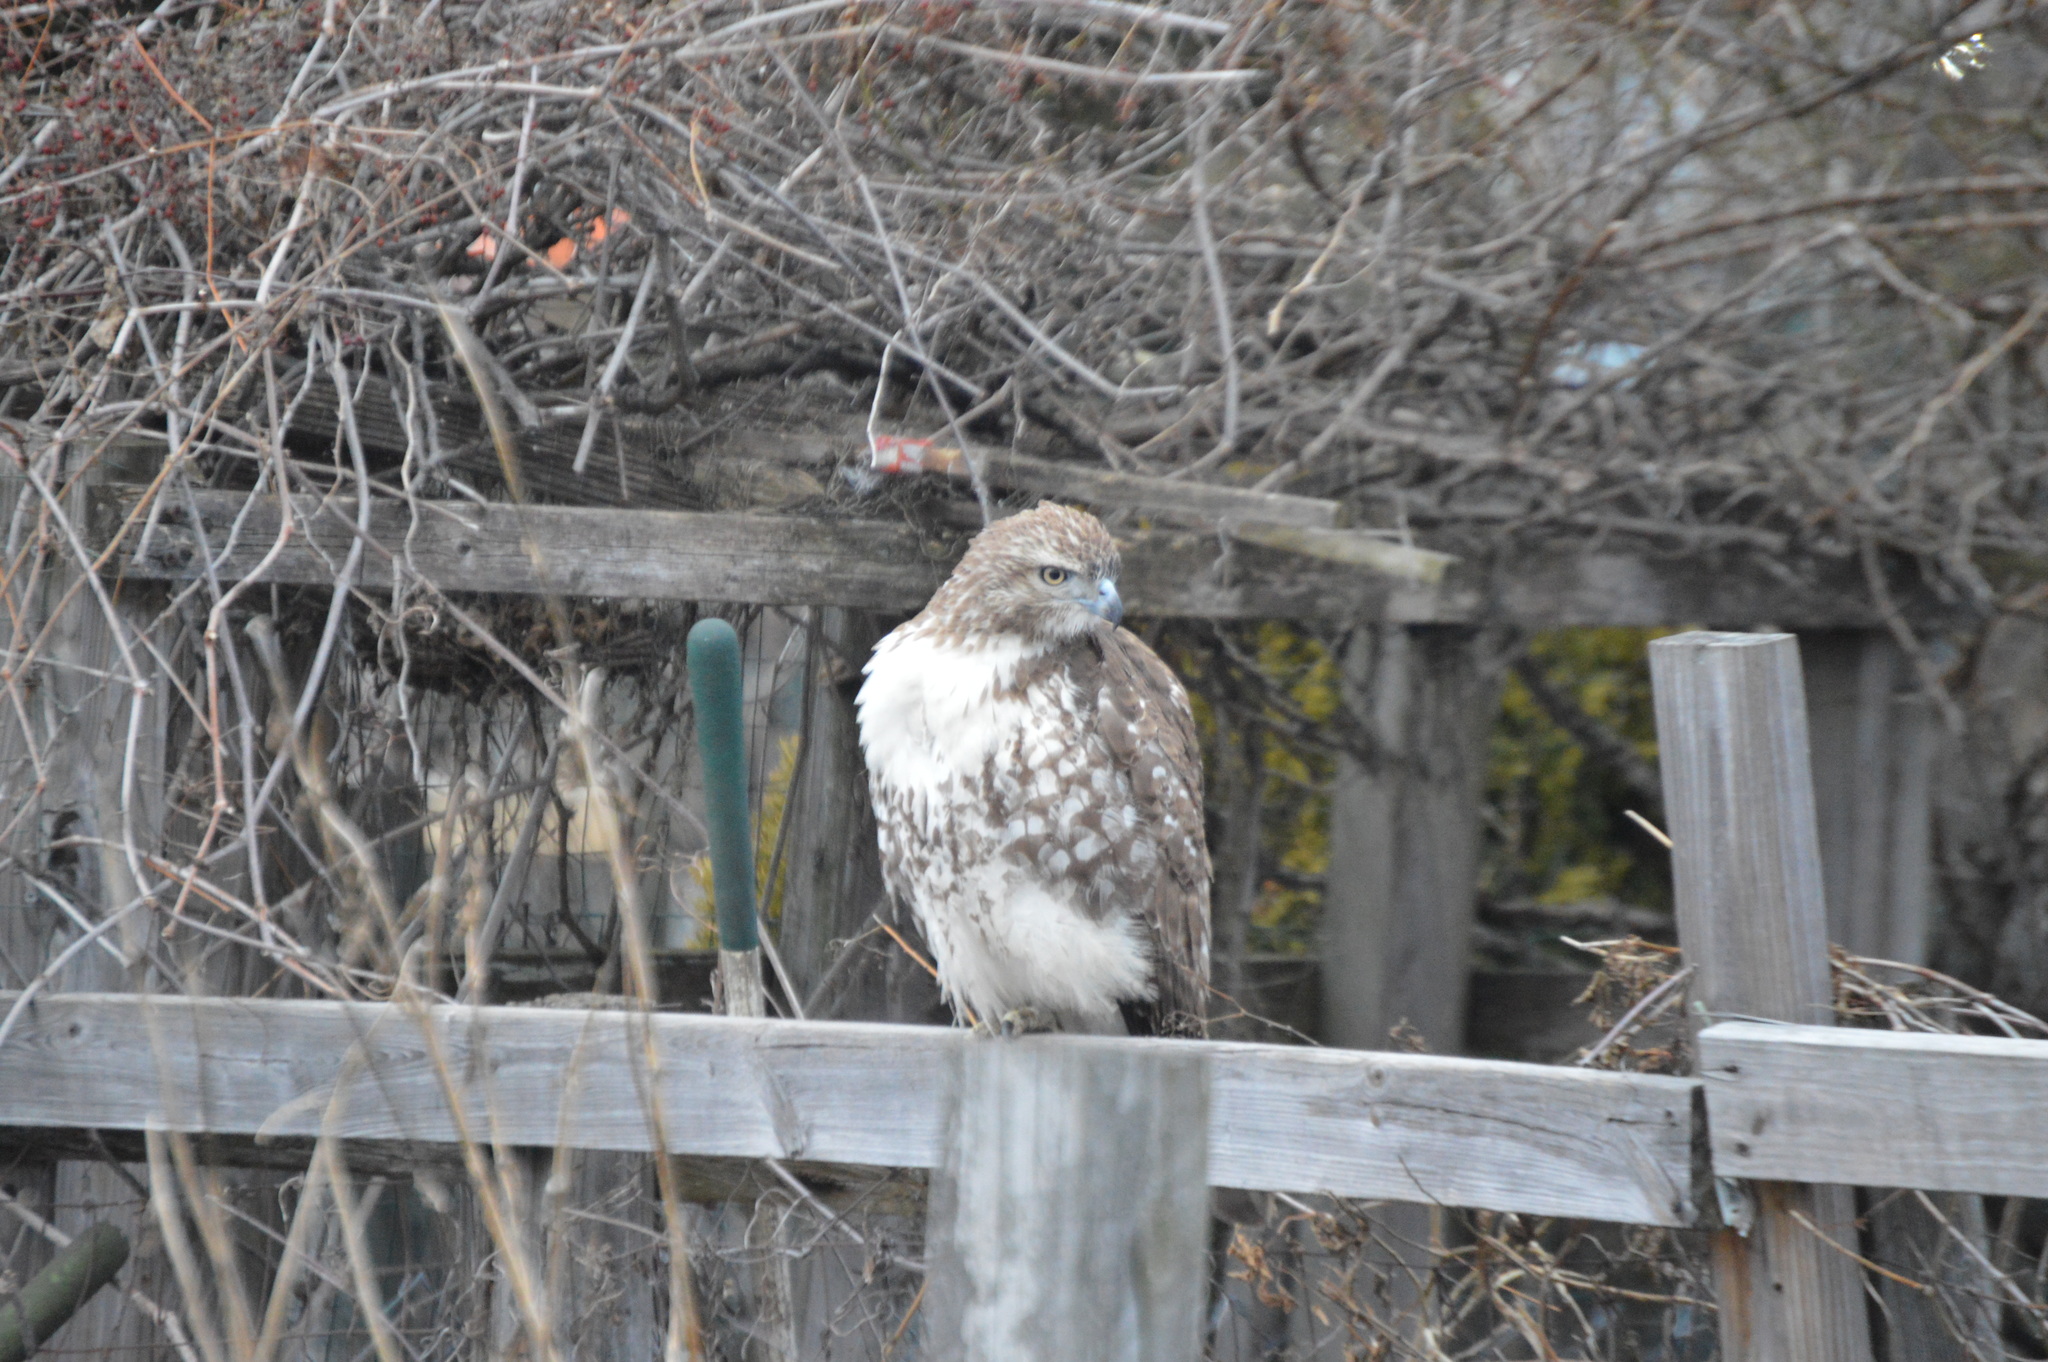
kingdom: Animalia
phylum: Chordata
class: Aves
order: Accipitriformes
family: Accipitridae
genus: Buteo
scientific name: Buteo jamaicensis
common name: Red-tailed hawk
